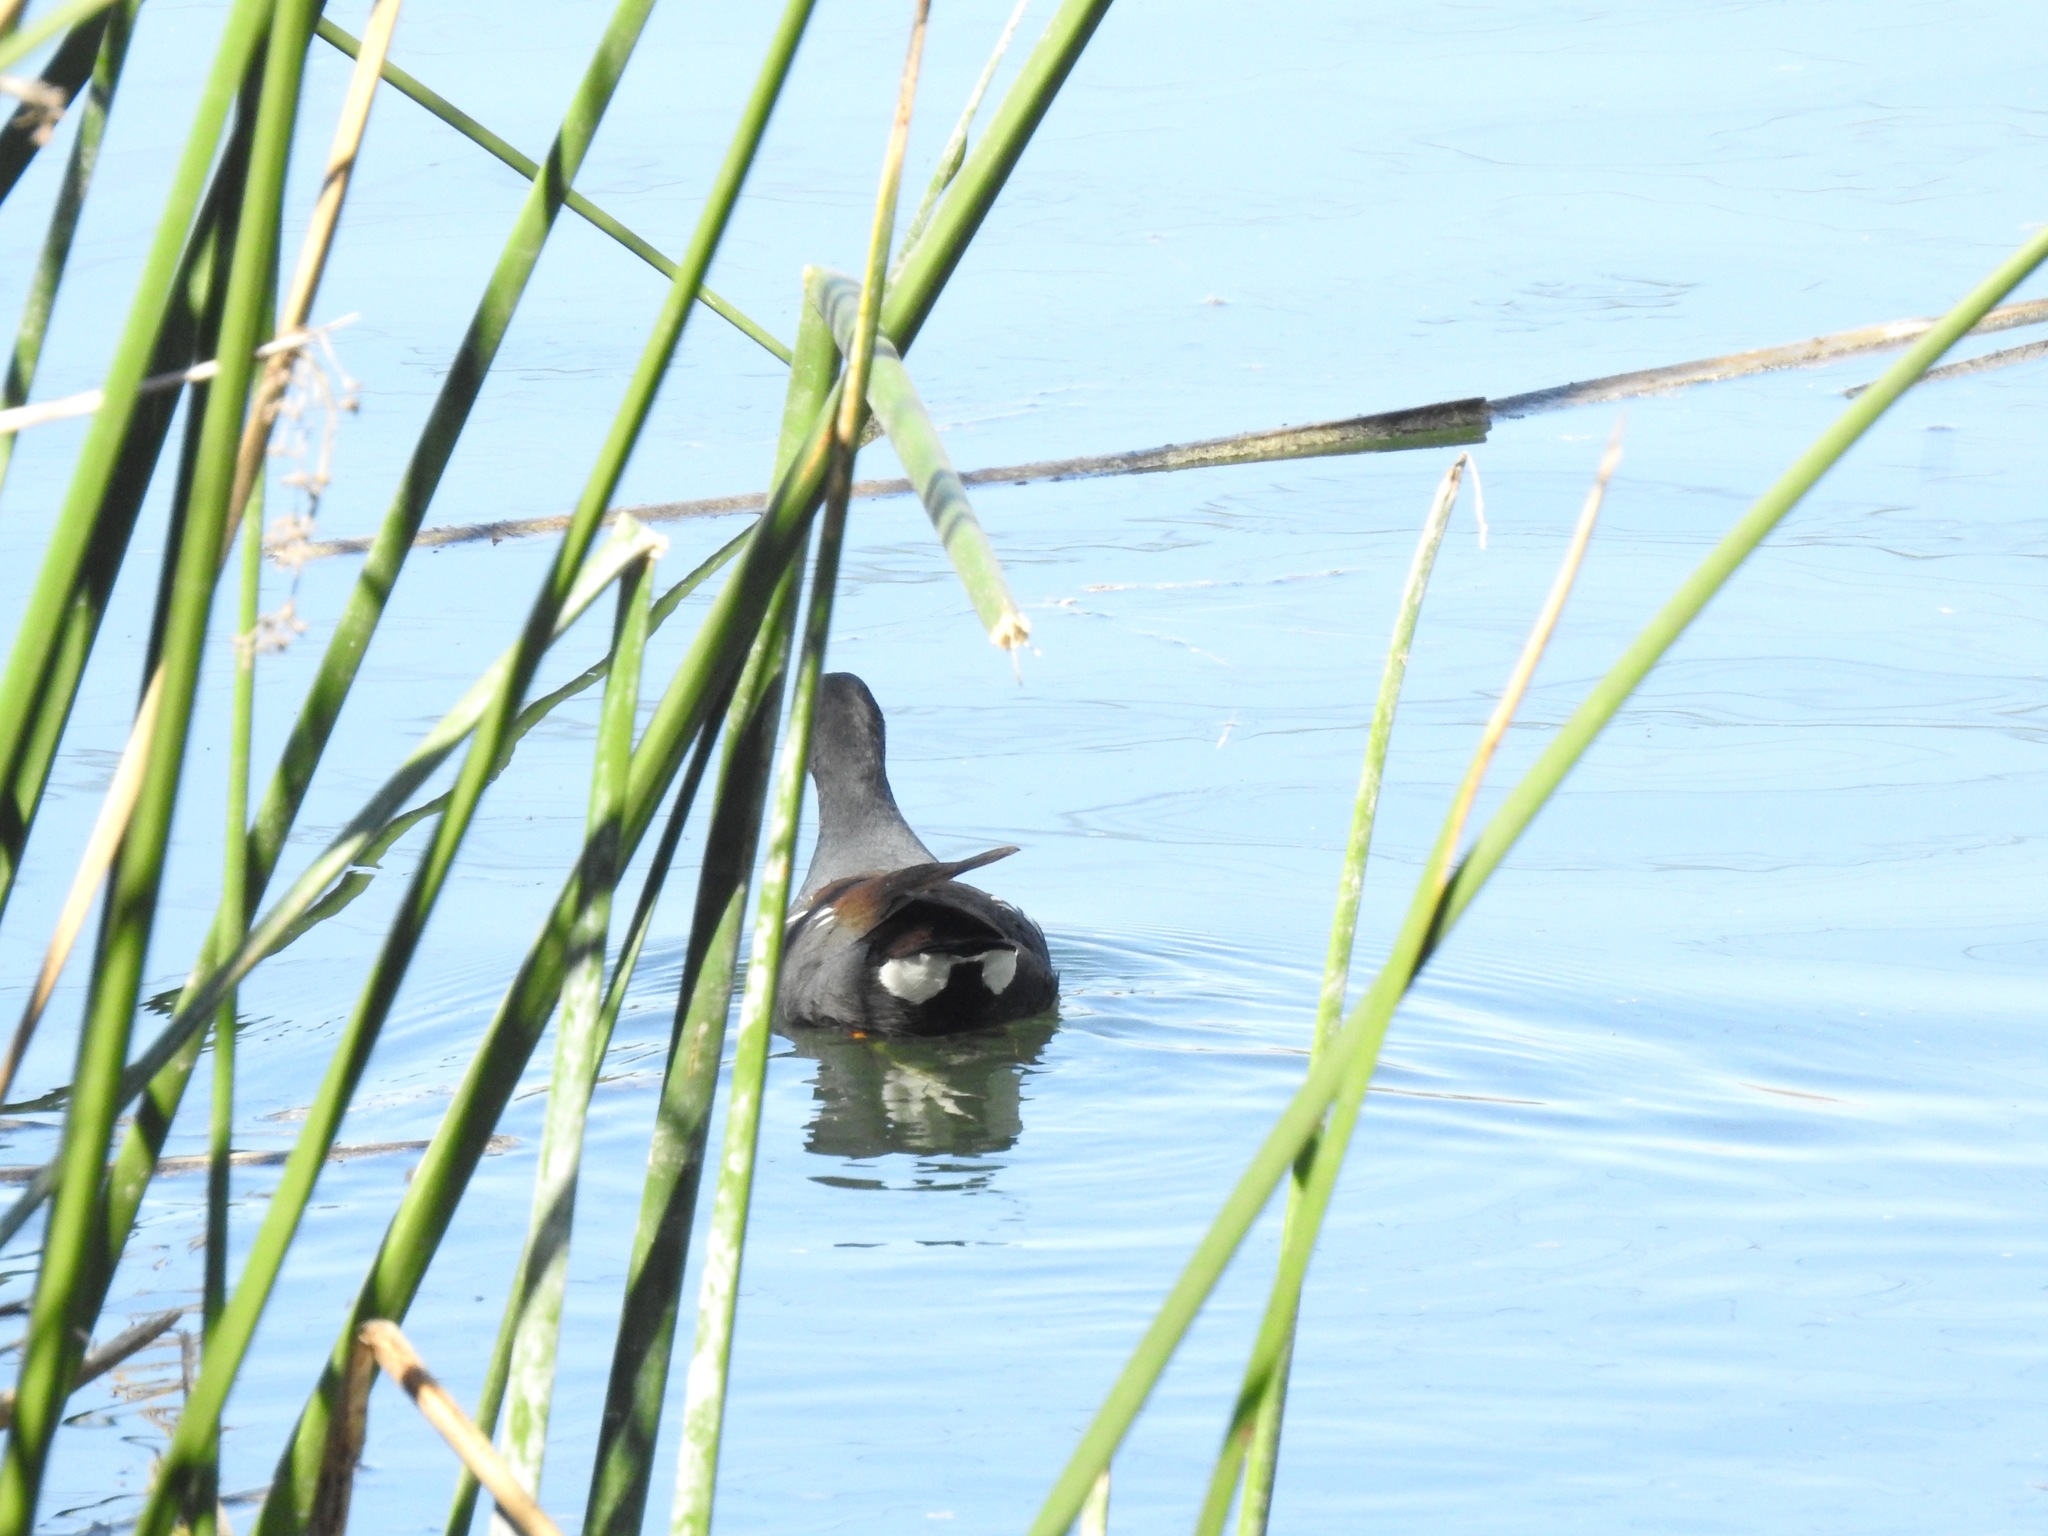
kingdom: Animalia
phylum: Chordata
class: Aves
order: Gruiformes
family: Rallidae
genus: Gallinula
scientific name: Gallinula chloropus
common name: Common moorhen
